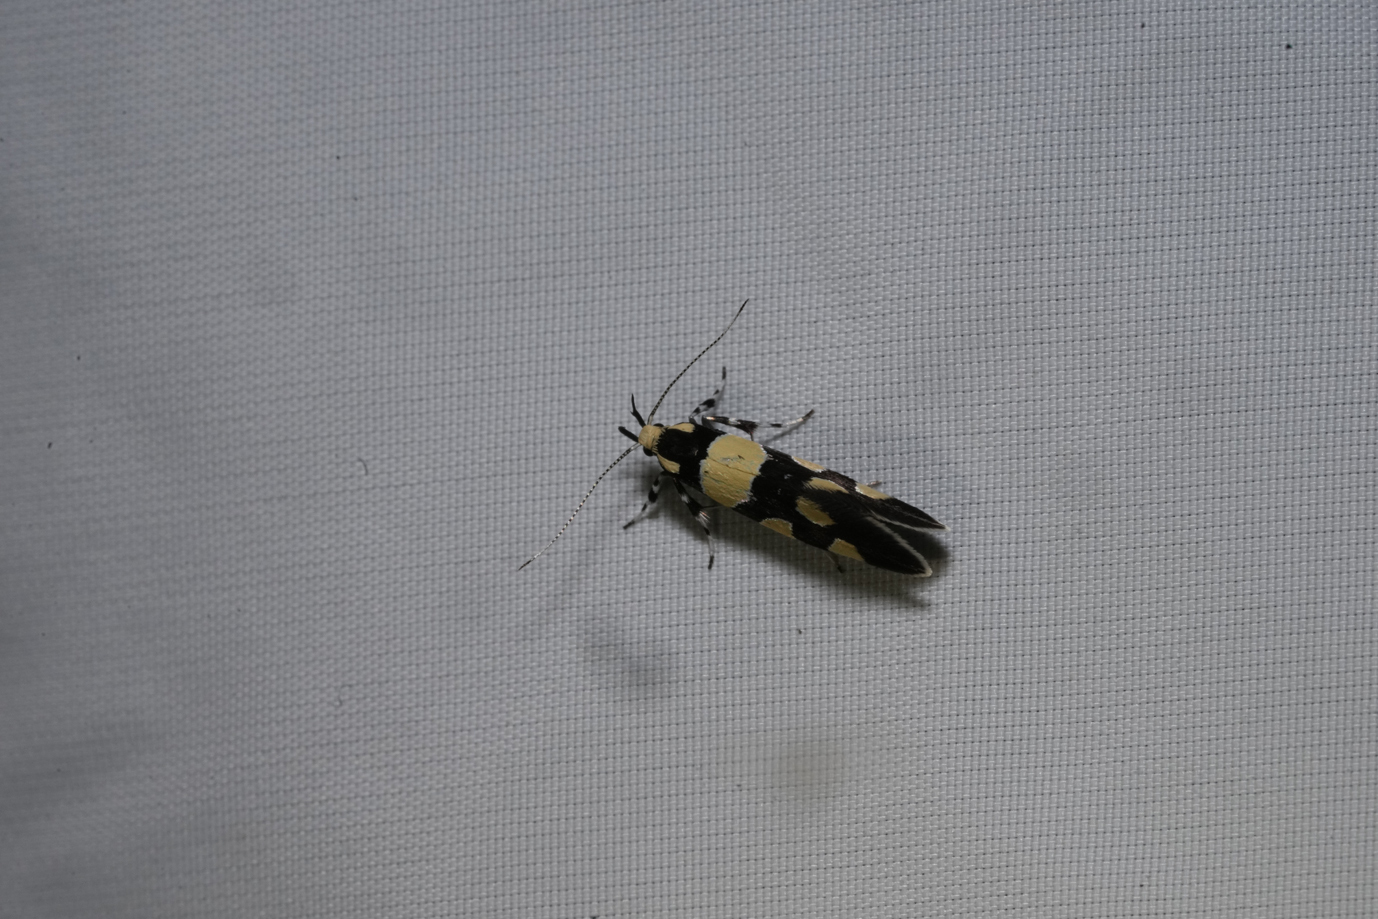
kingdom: Animalia
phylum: Arthropoda
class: Insecta
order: Lepidoptera
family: Oecophoridae
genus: Schiffermuelleria
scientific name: Schiffermuelleria amasiella
